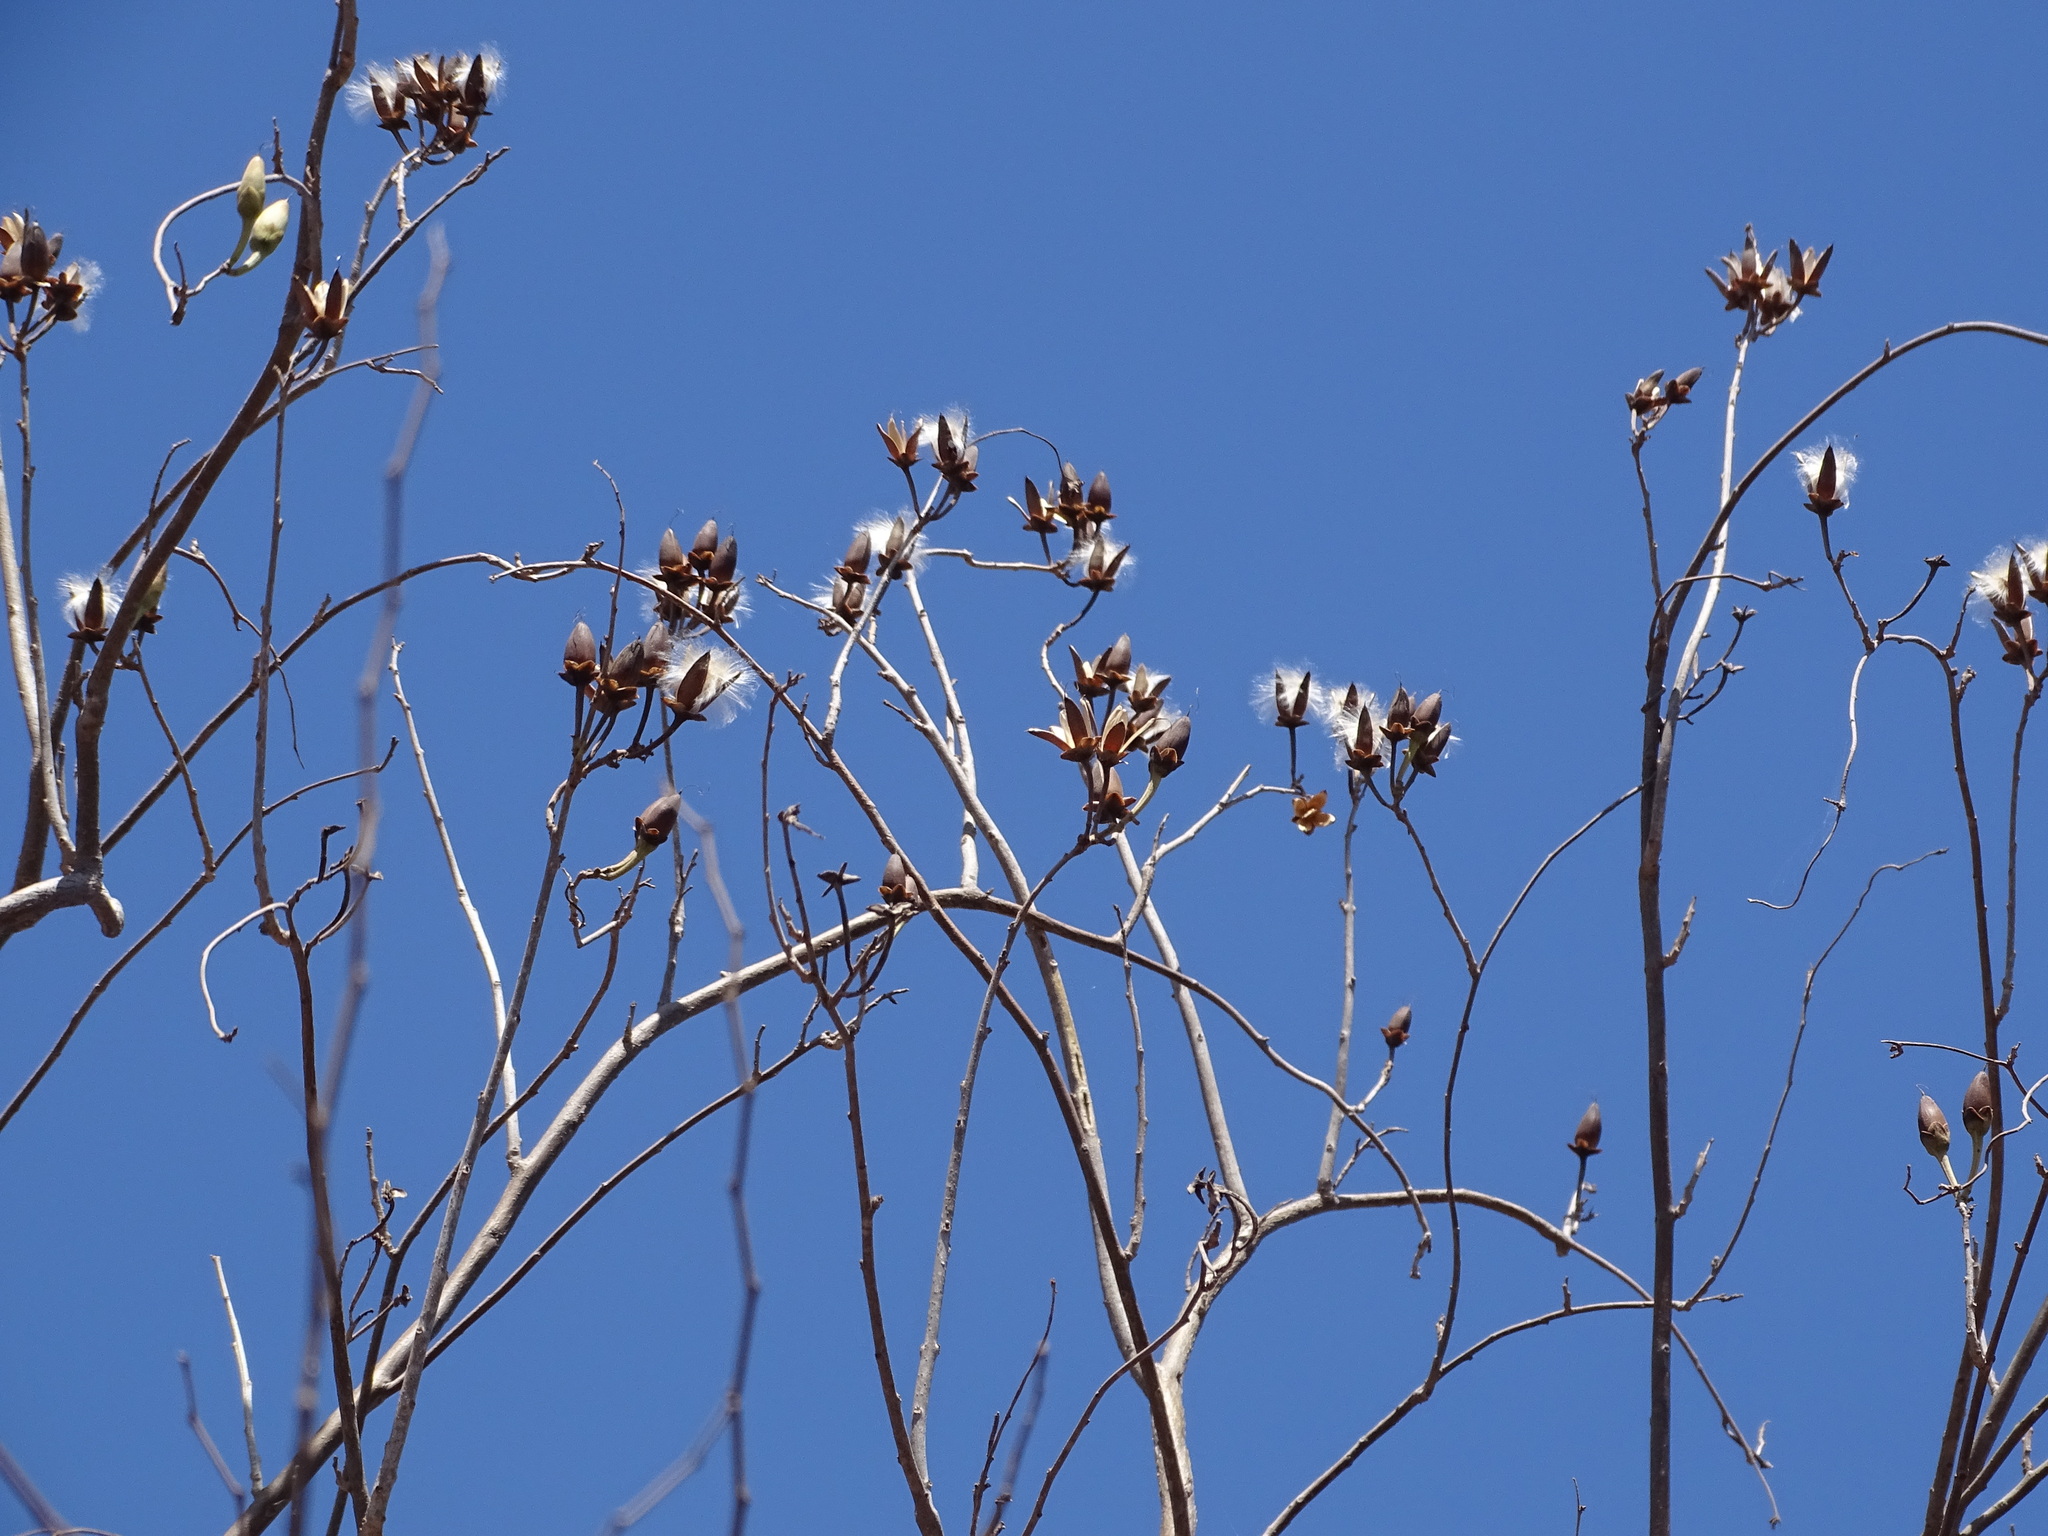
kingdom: Plantae
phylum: Tracheophyta
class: Magnoliopsida
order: Solanales
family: Convolvulaceae
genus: Ipomoea
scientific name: Ipomoea arborescens
